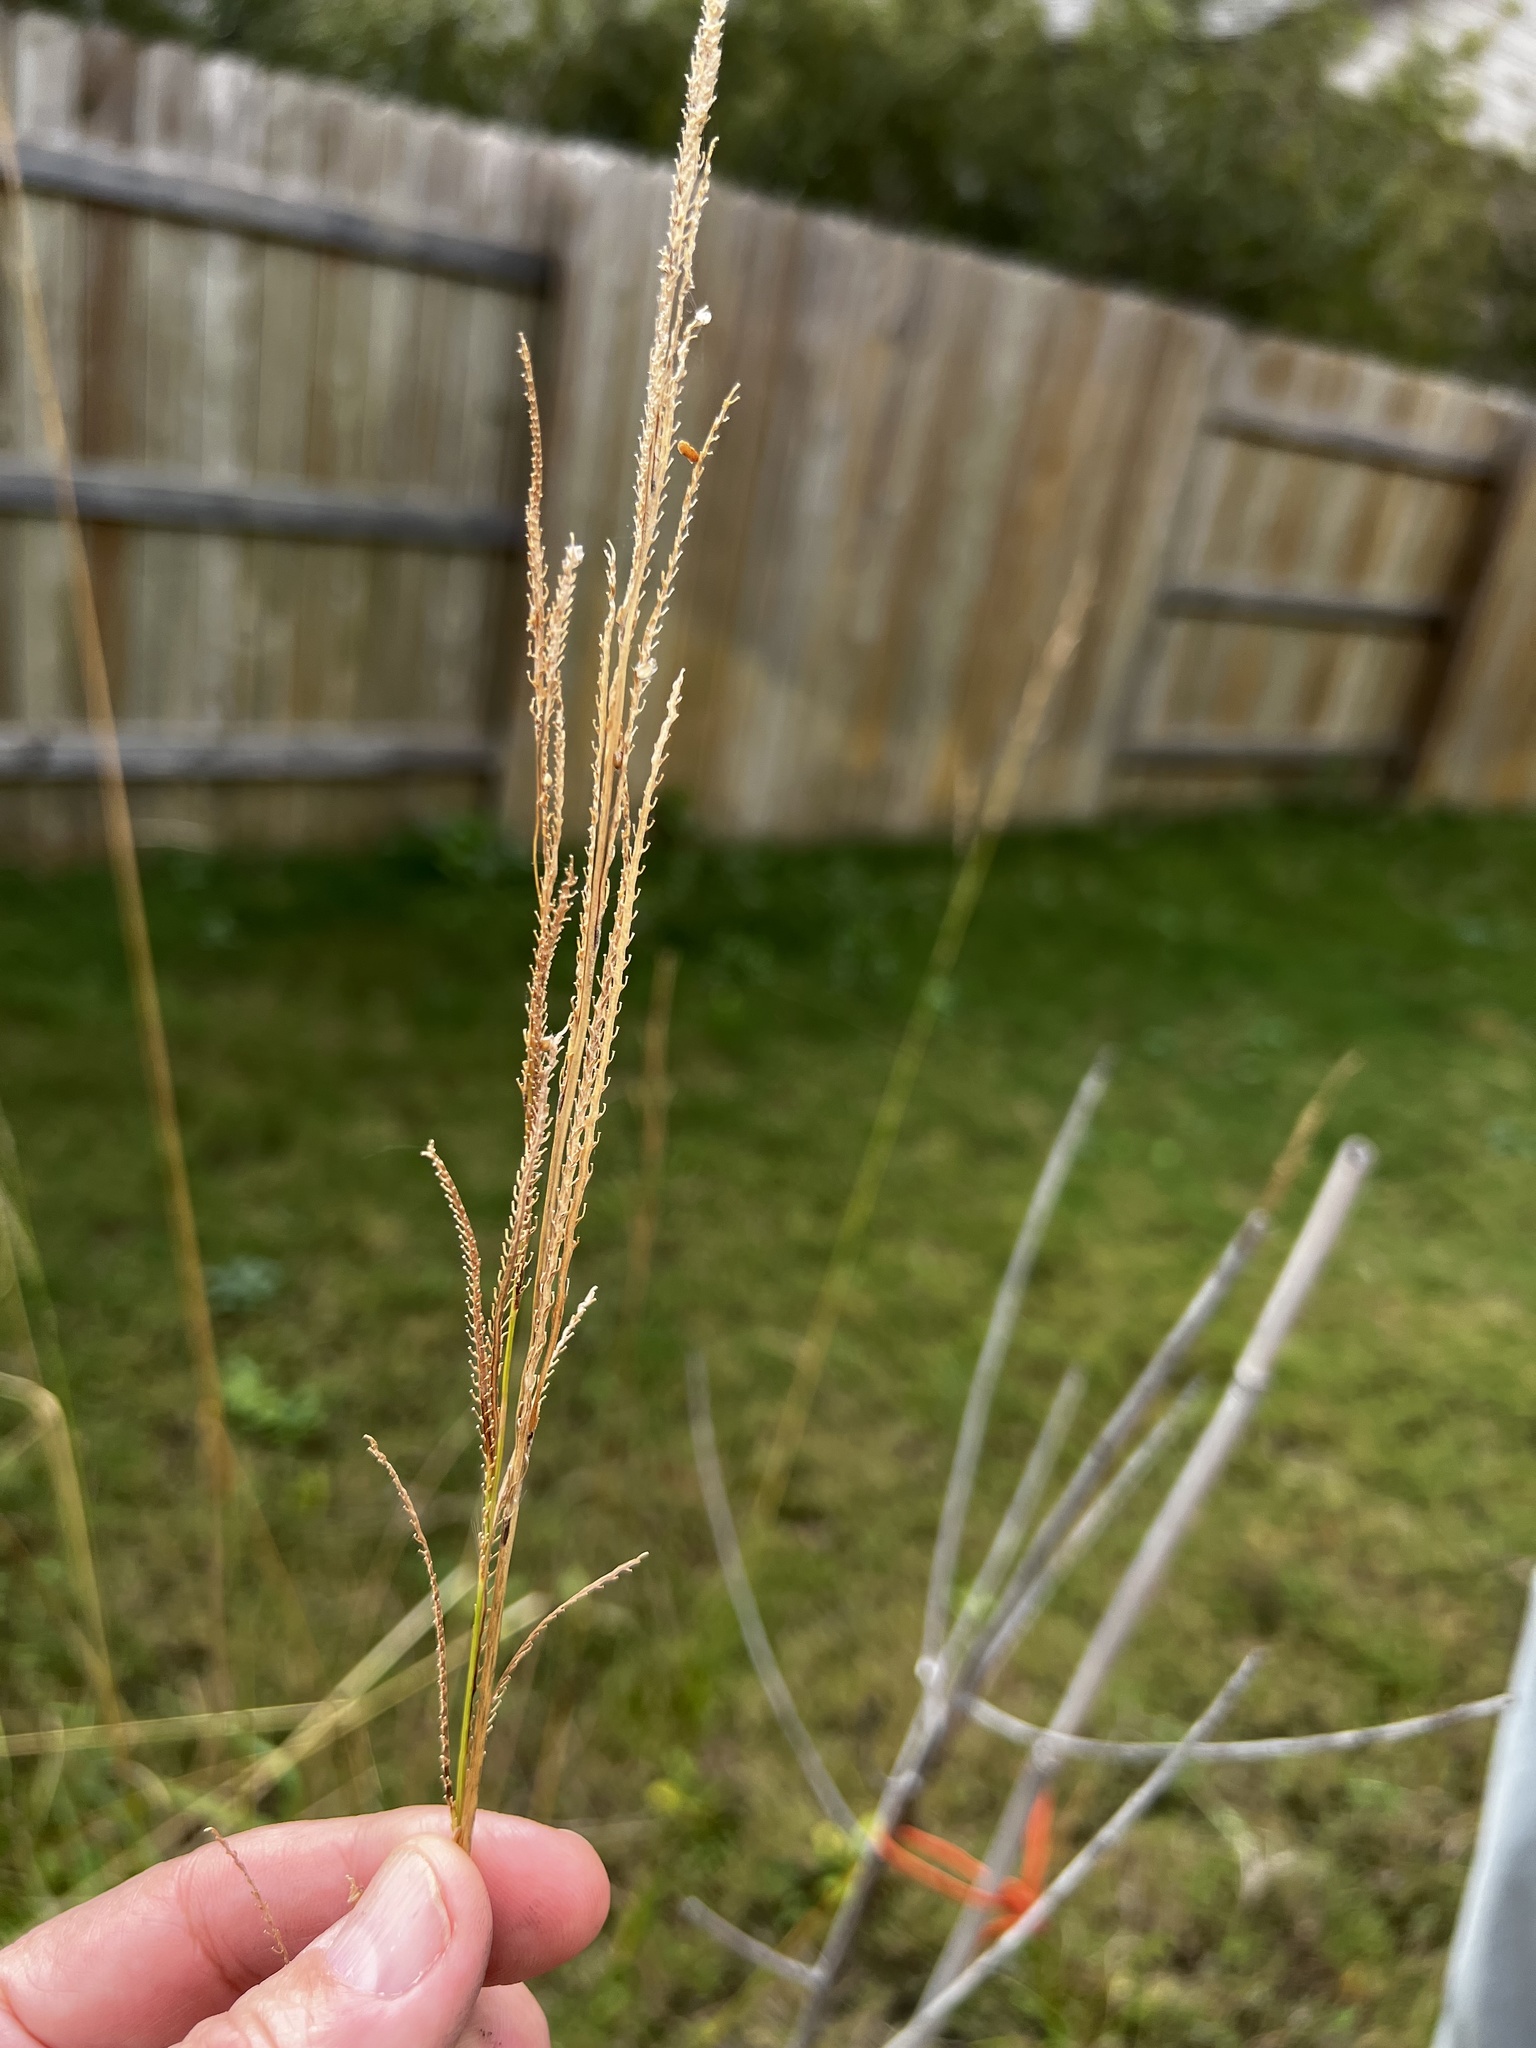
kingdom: Plantae
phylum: Tracheophyta
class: Liliopsida
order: Poales
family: Poaceae
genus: Paspalum
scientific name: Paspalum urvillei
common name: Vasey's grass
